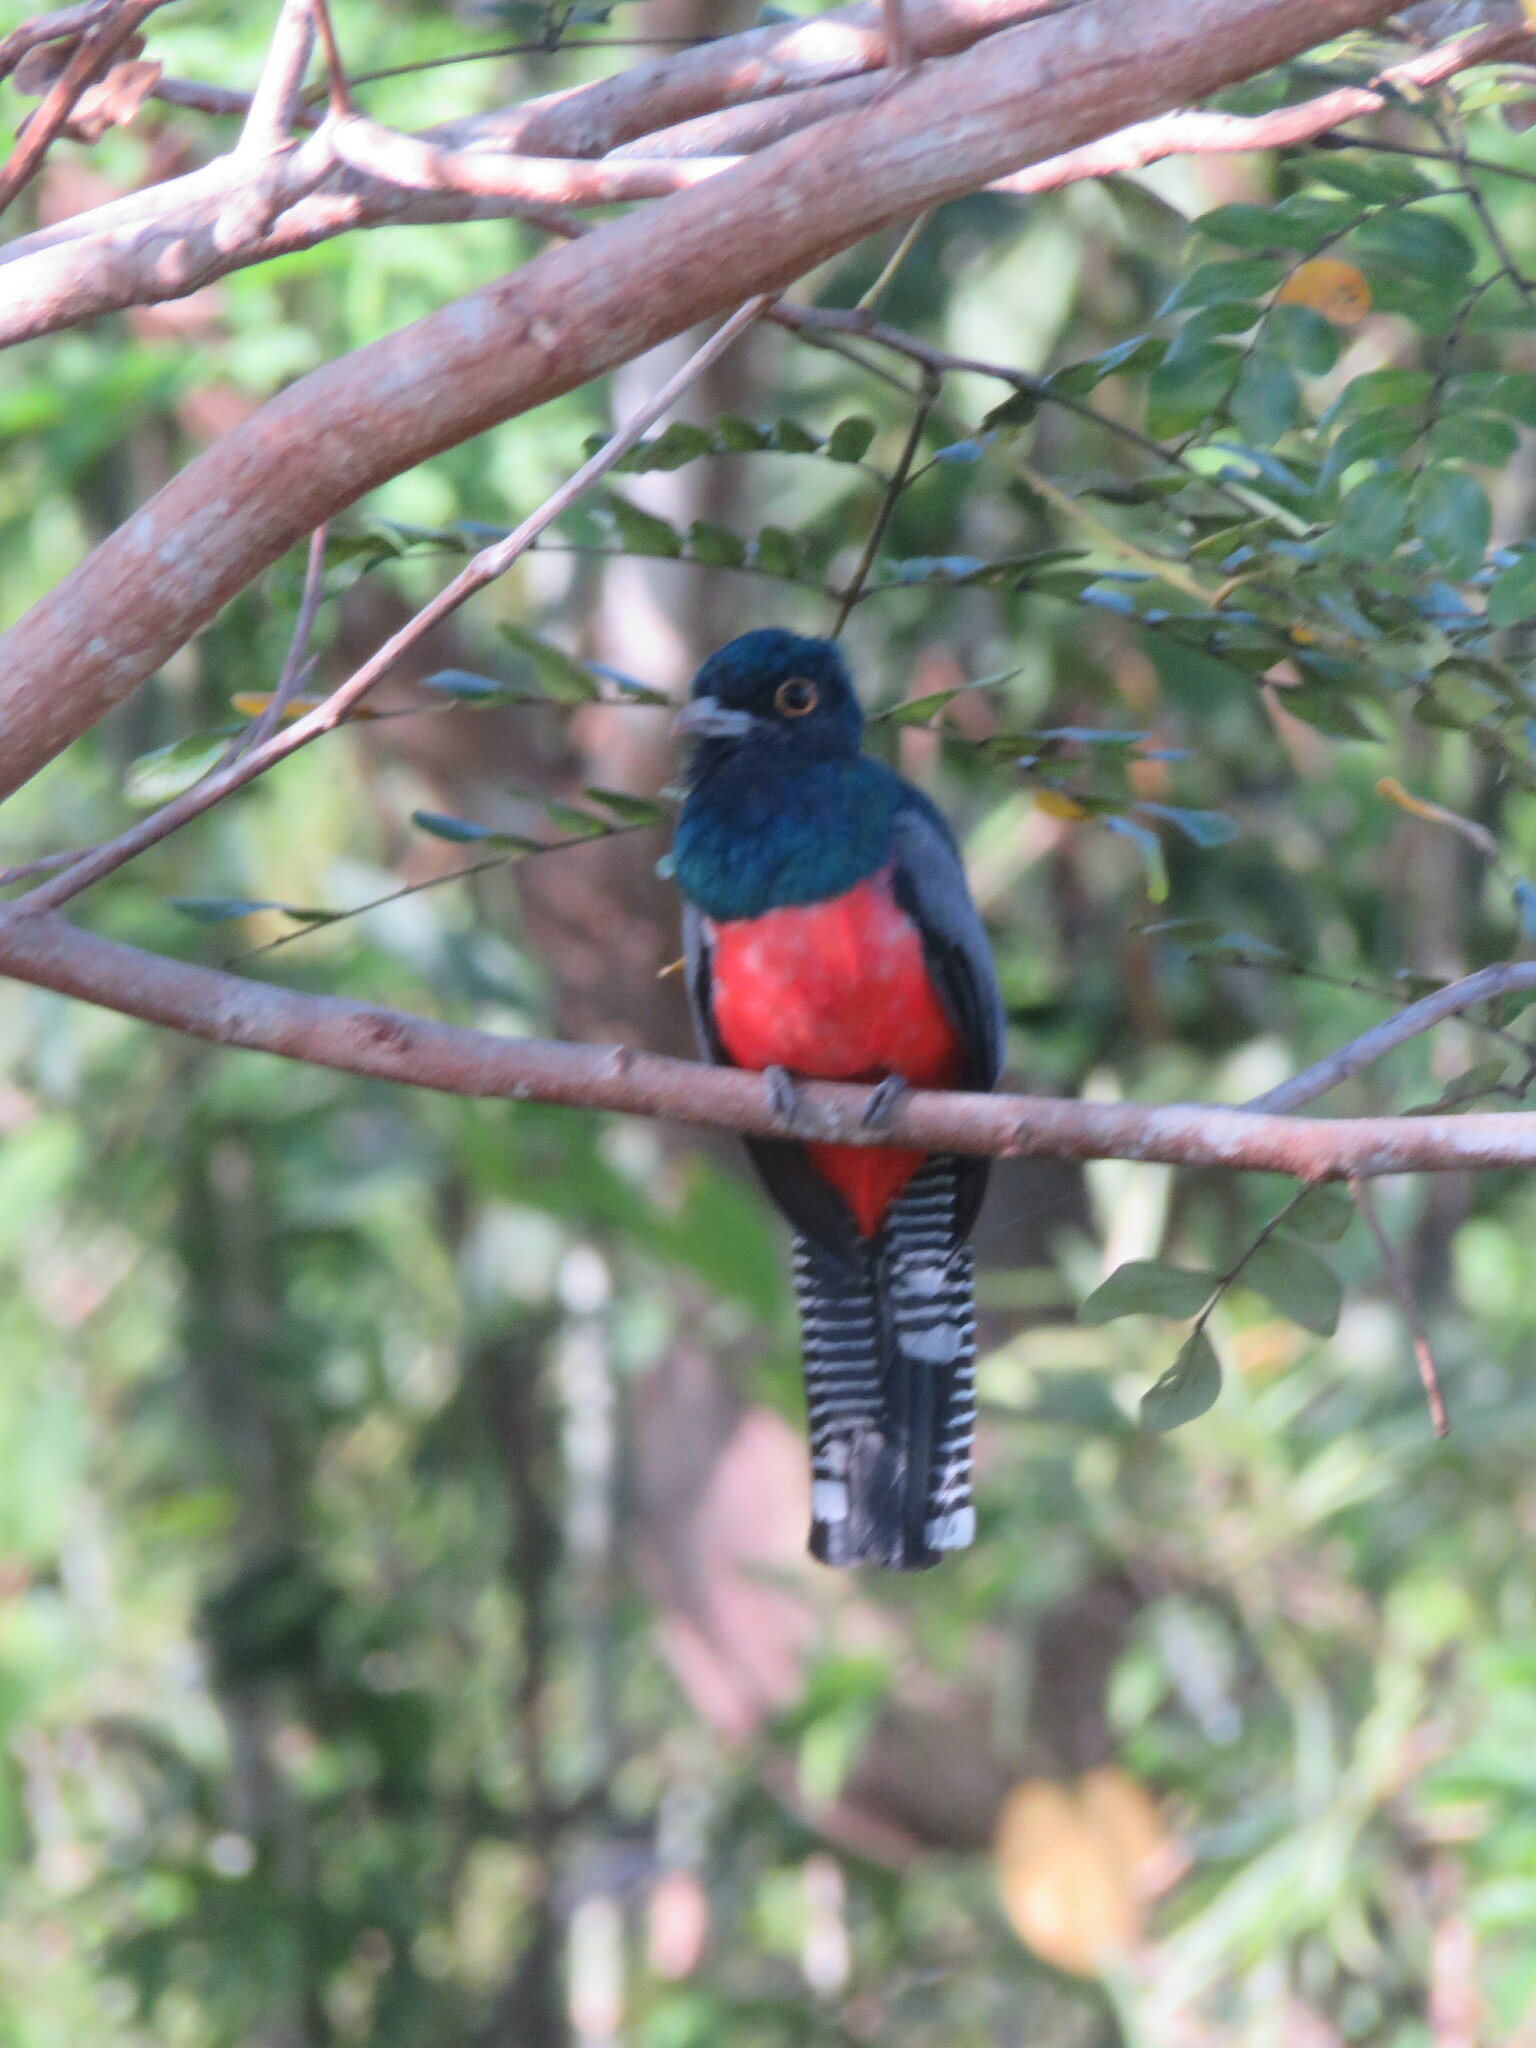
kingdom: Animalia
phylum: Chordata
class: Aves
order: Trogoniformes
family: Trogonidae
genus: Trogon
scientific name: Trogon curucui
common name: Blue-crowned trogon
